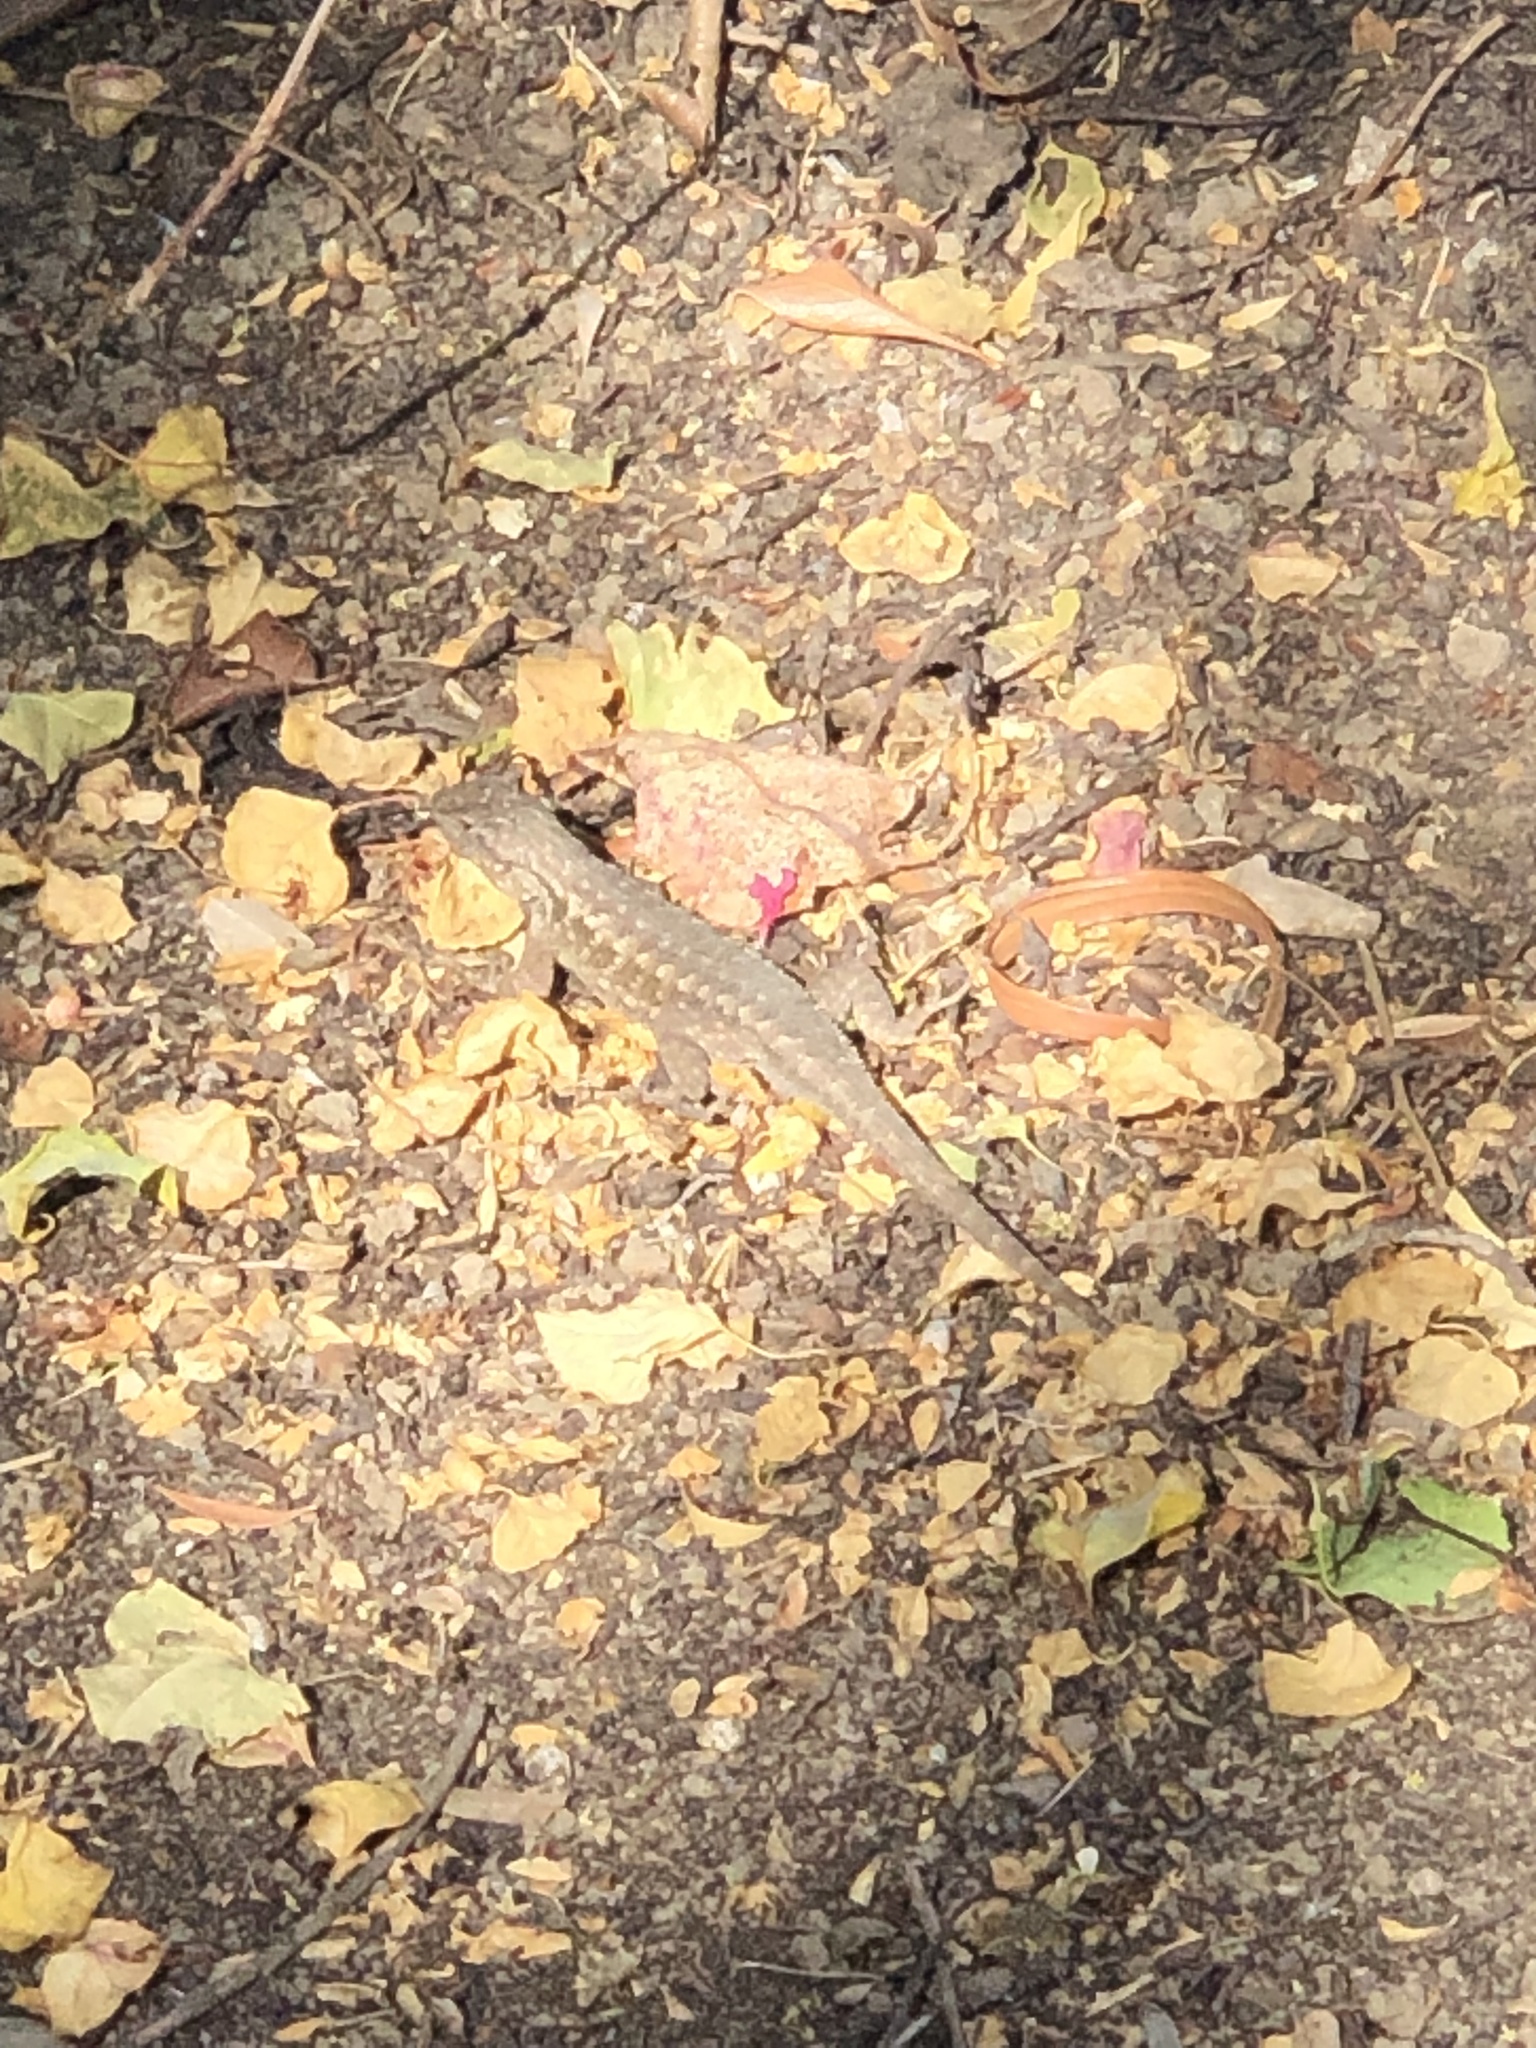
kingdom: Animalia
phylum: Chordata
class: Squamata
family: Phrynosomatidae
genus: Sceloporus
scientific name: Sceloporus occidentalis
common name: Western fence lizard
